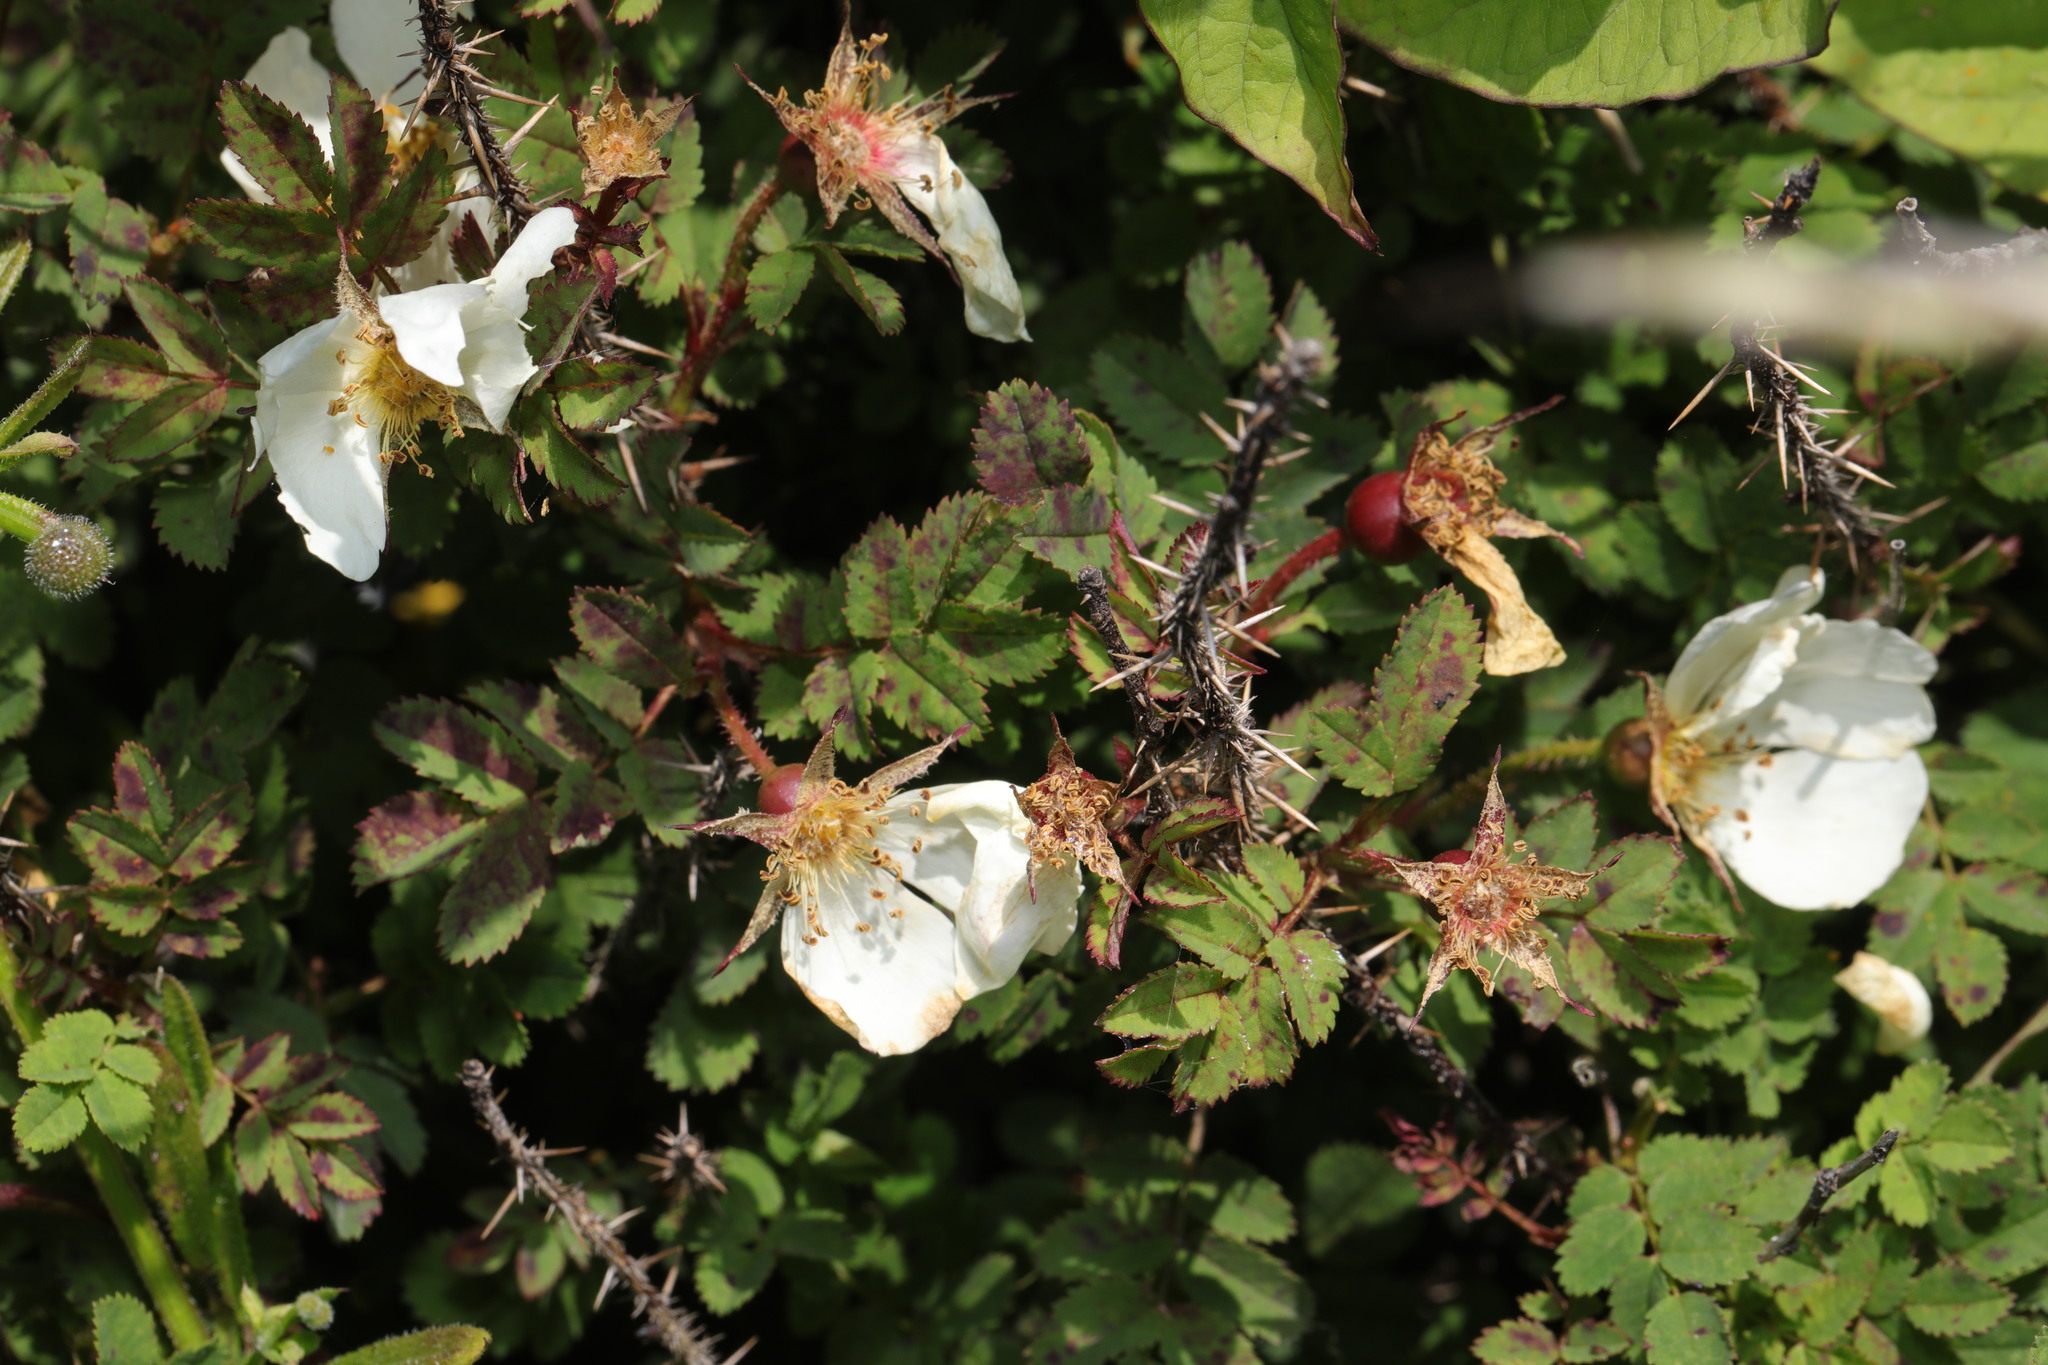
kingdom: Plantae
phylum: Tracheophyta
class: Magnoliopsida
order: Rosales
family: Rosaceae
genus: Rosa
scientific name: Rosa spinosissima
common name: Burnet rose
